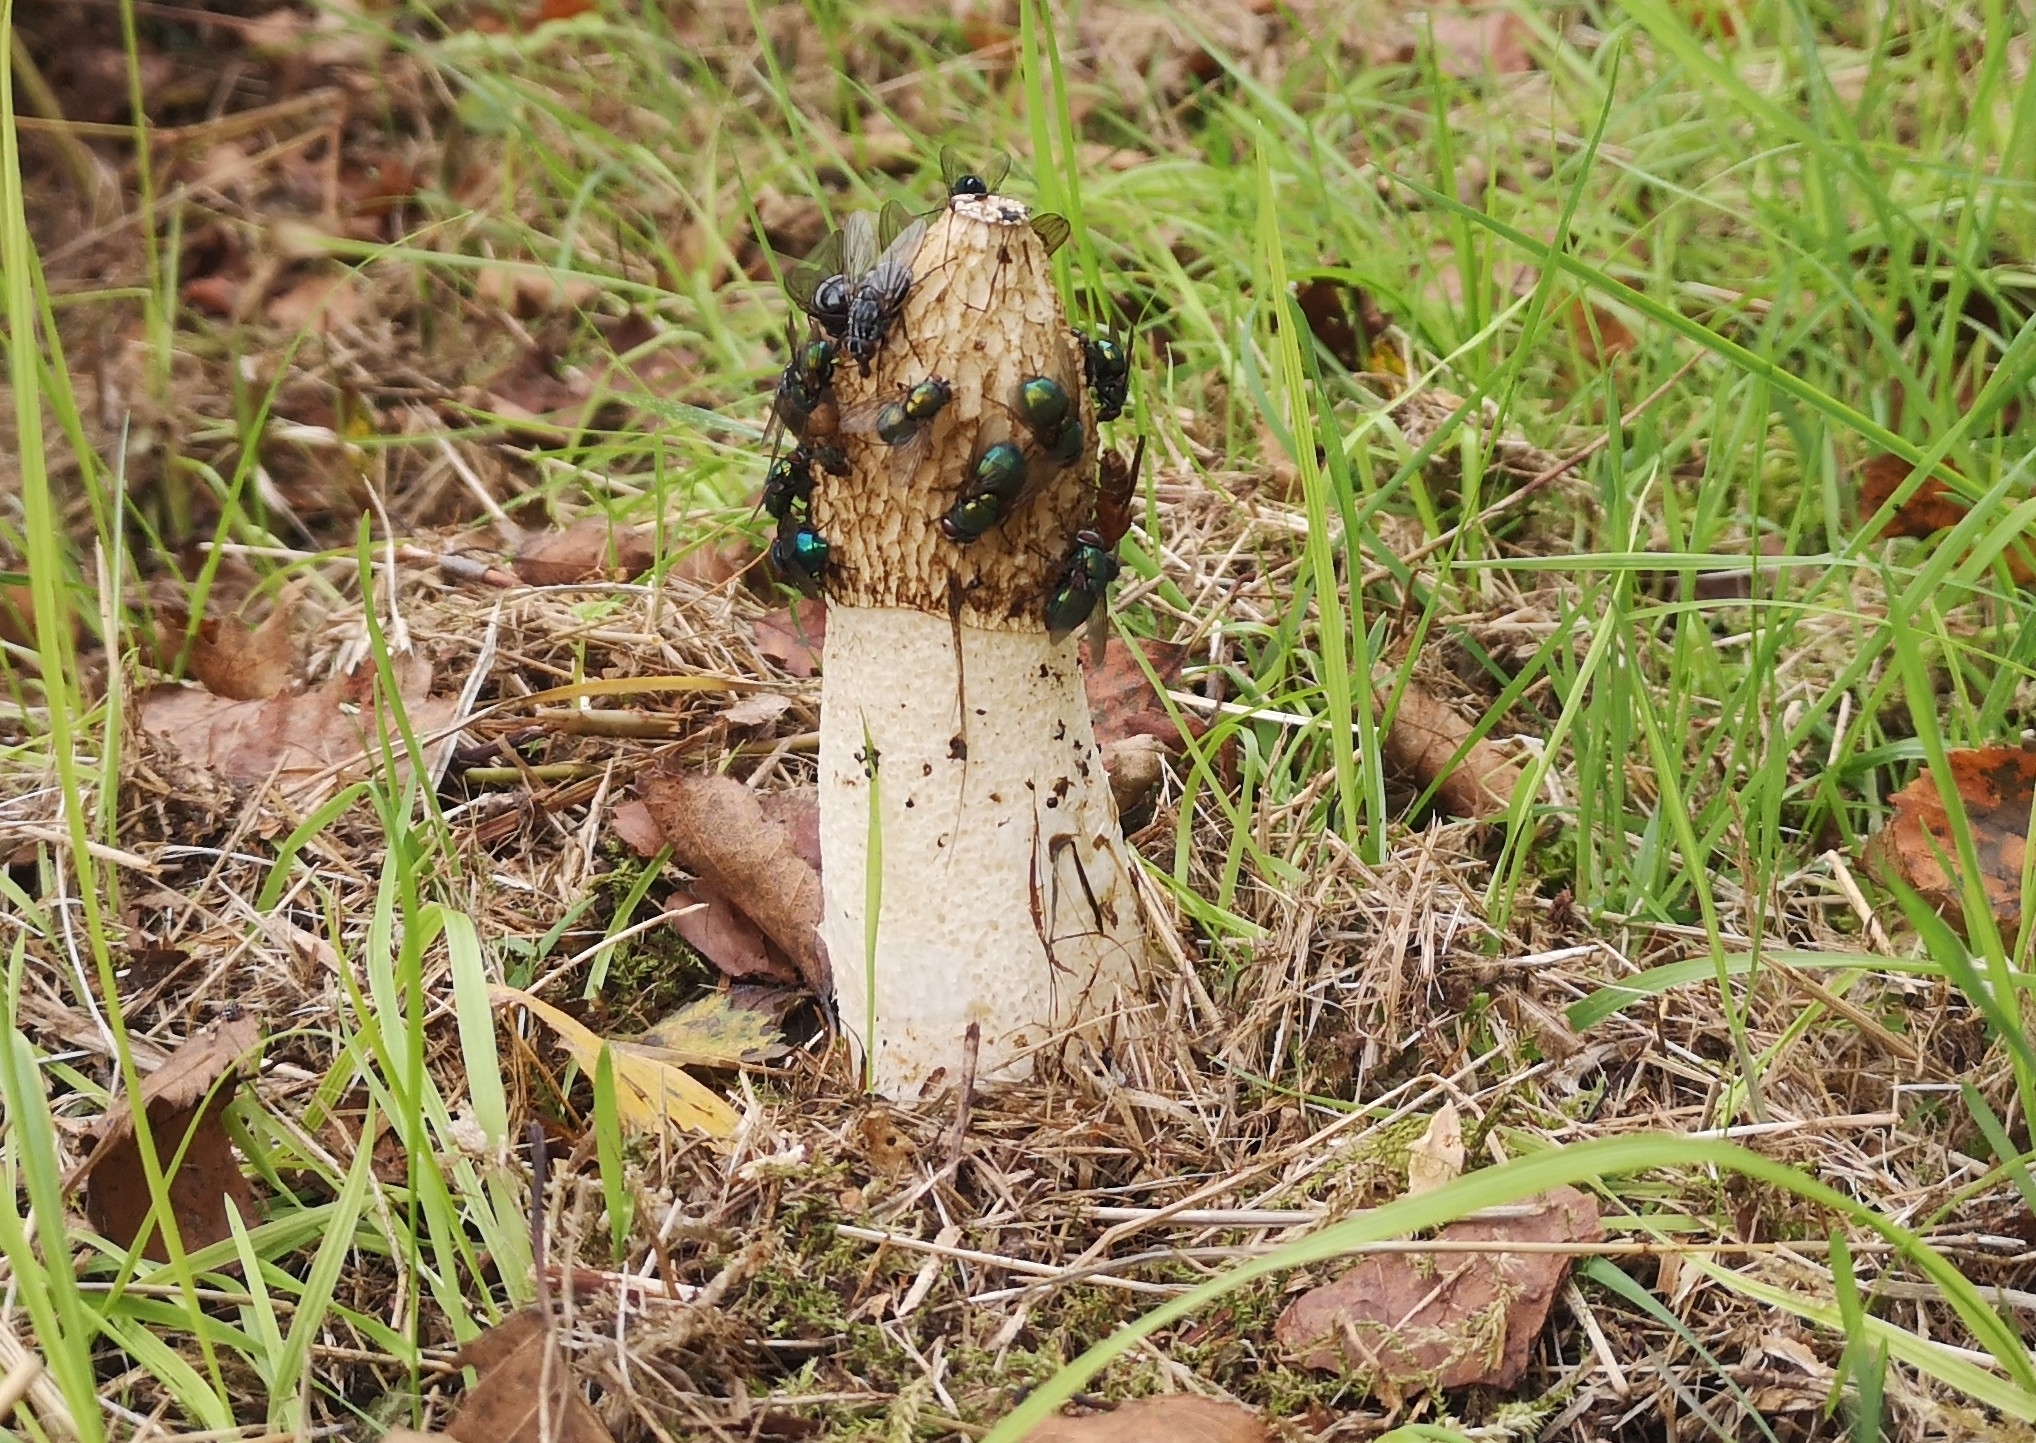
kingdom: Fungi
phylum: Basidiomycota
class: Agaricomycetes
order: Phallales
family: Phallaceae
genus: Phallus
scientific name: Phallus impudicus
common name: Common stinkhorn
